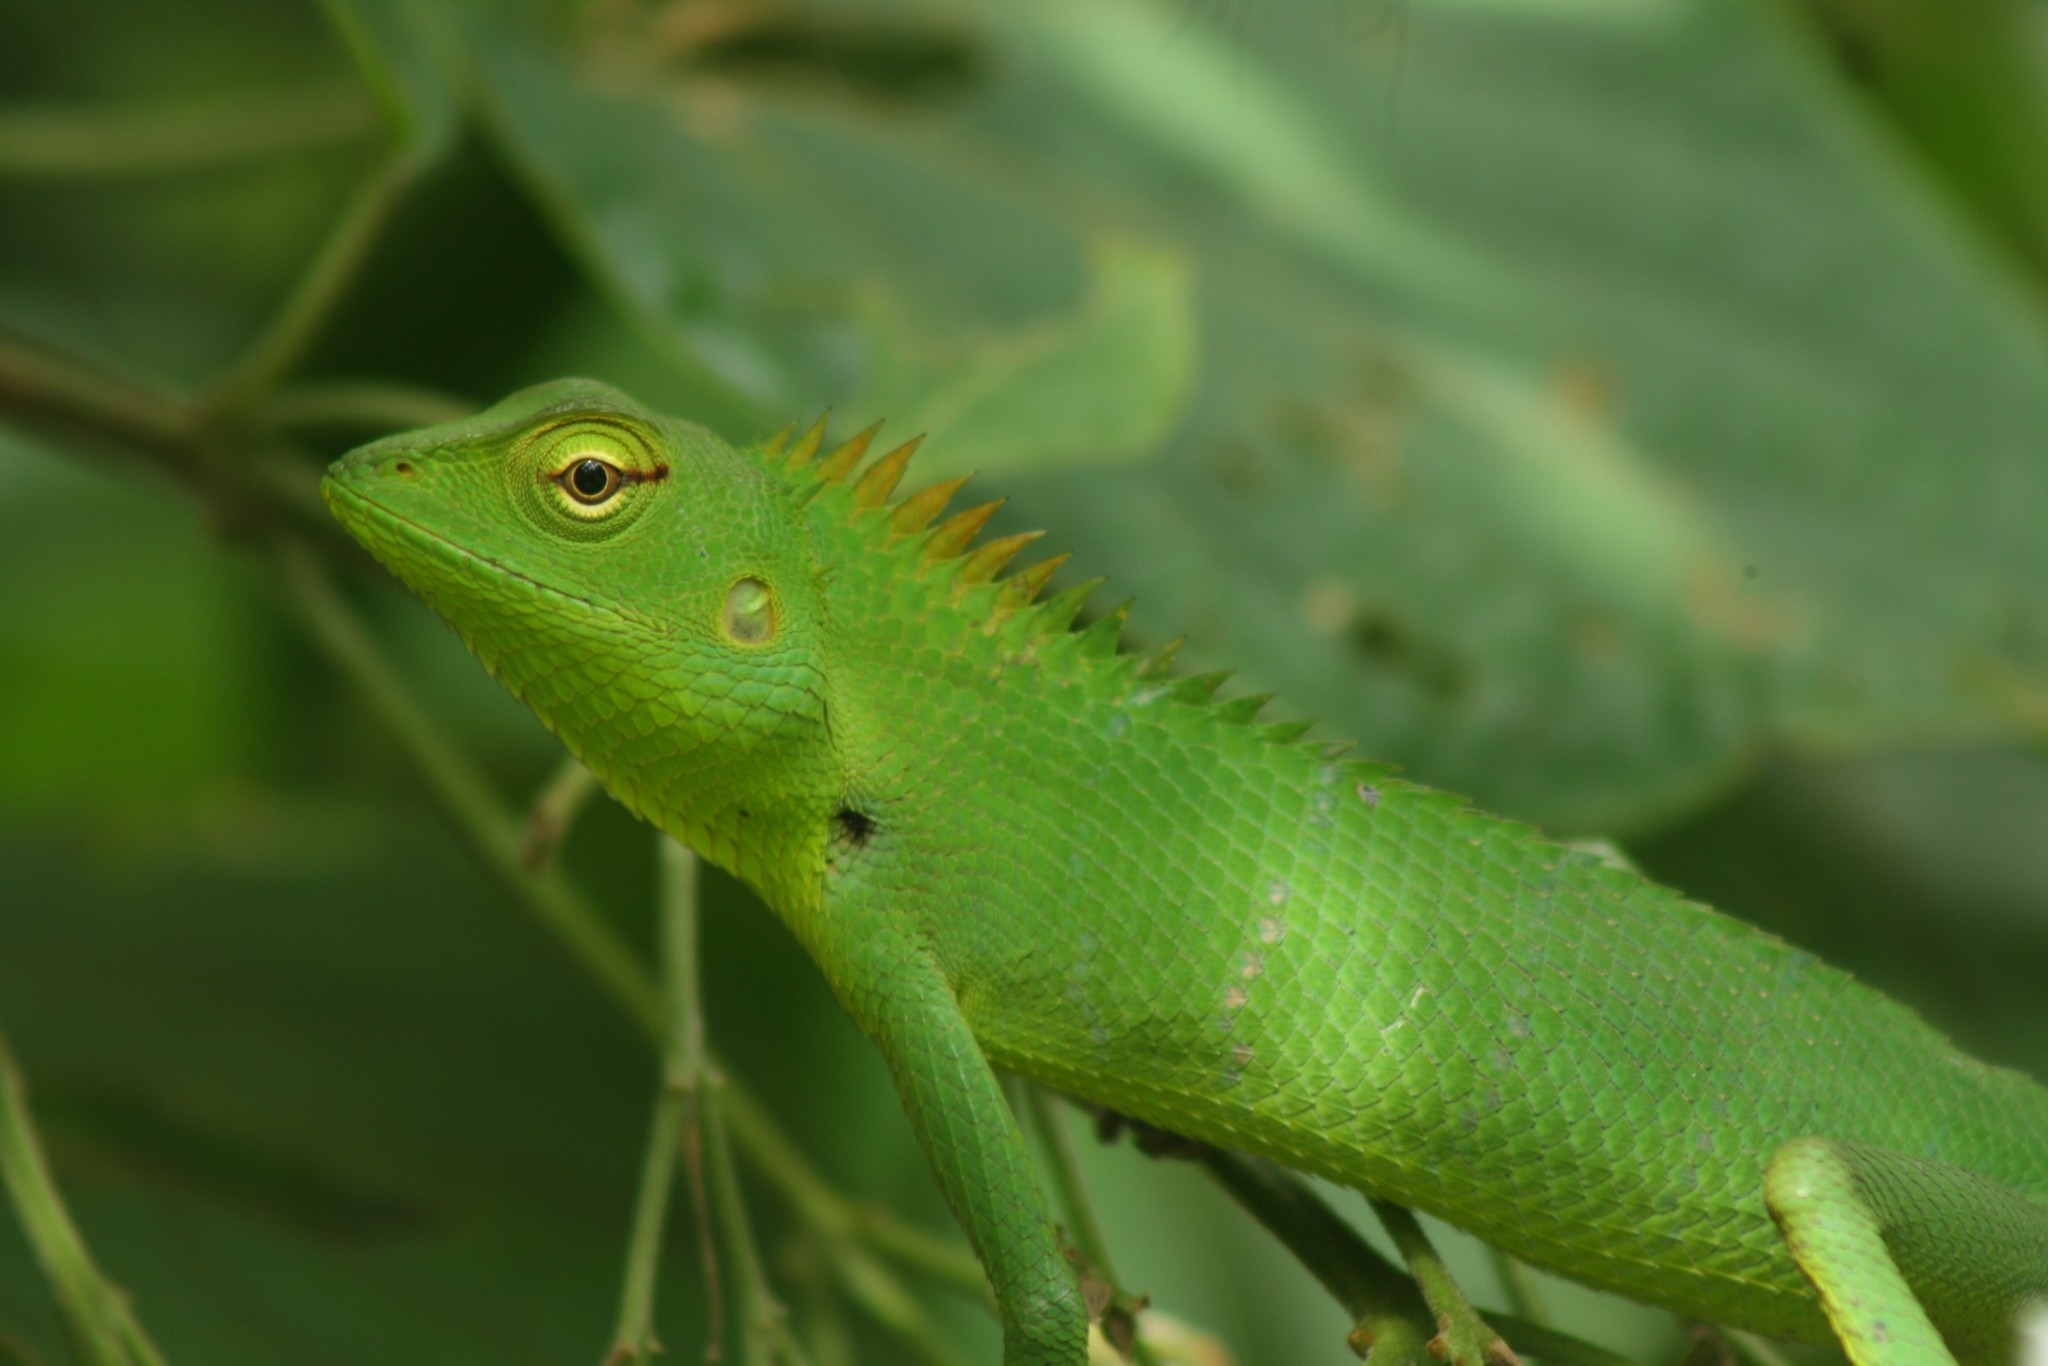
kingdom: Animalia
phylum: Chordata
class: Squamata
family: Agamidae
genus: Calotes
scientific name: Calotes calotes
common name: Common green forest lizard
